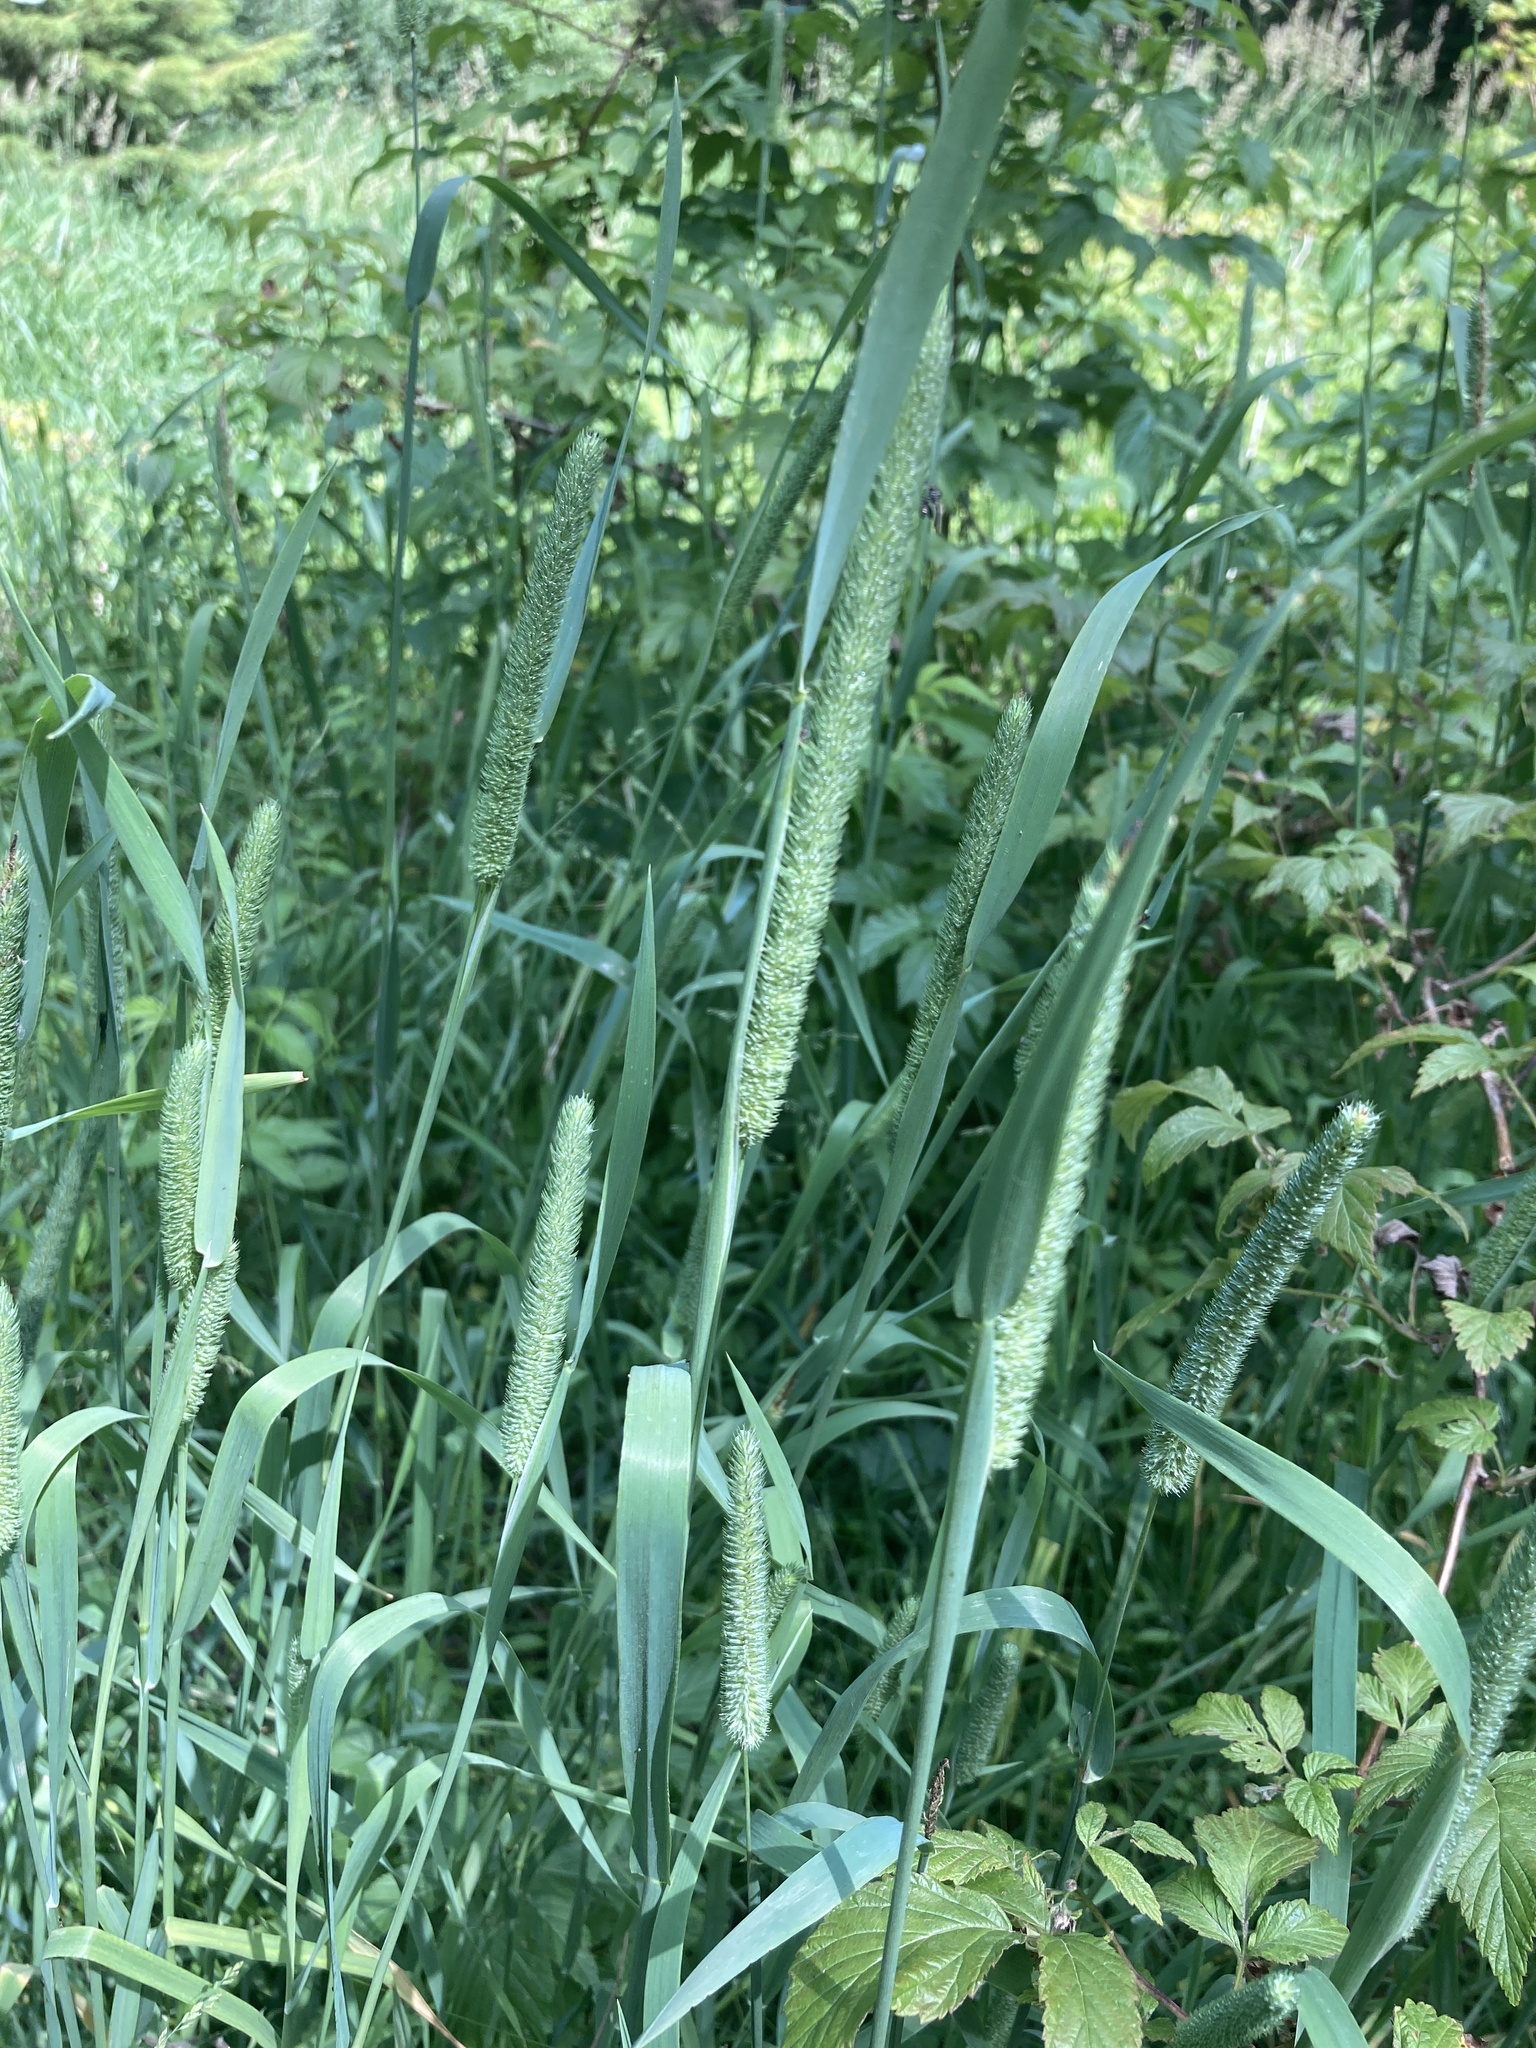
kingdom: Plantae
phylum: Tracheophyta
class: Liliopsida
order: Poales
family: Poaceae
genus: Phleum
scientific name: Phleum pratense
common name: Timothy grass
